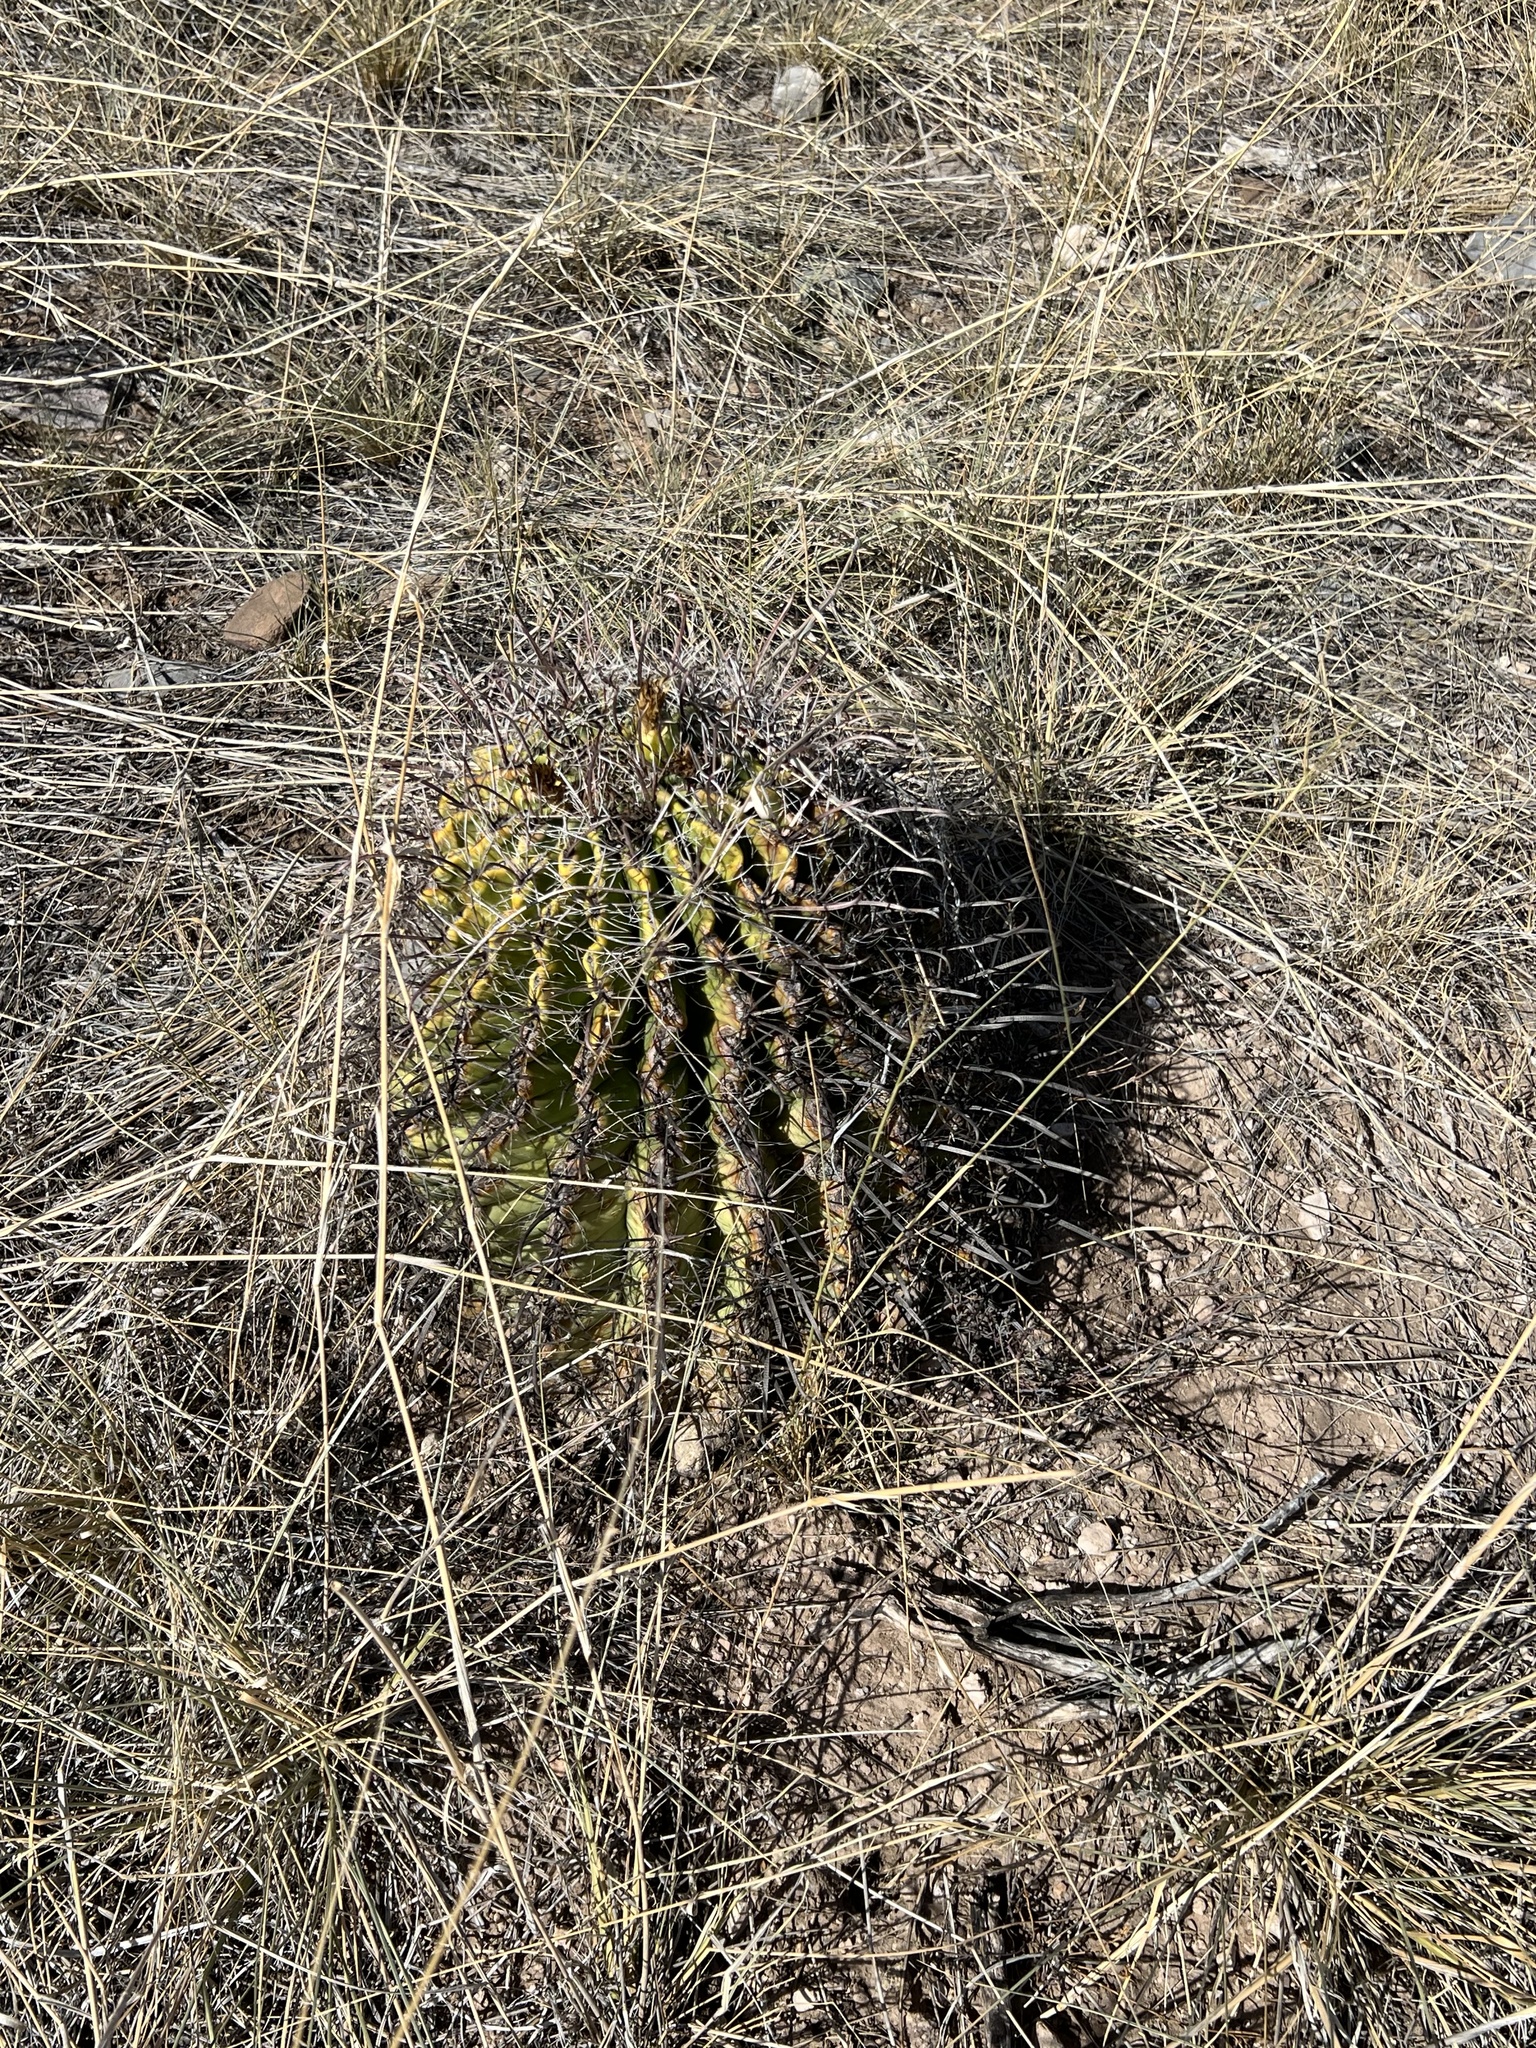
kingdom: Plantae
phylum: Tracheophyta
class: Magnoliopsida
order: Caryophyllales
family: Cactaceae
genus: Ferocactus
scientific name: Ferocactus wislizeni
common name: Candy barrel cactus
